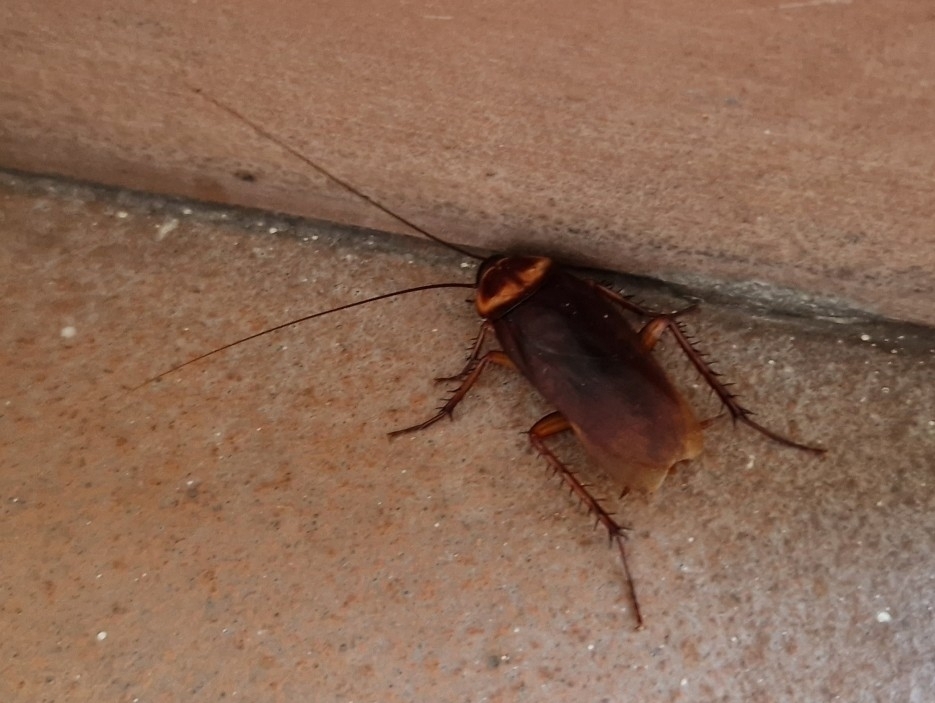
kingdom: Animalia
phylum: Arthropoda
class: Insecta
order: Blattodea
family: Blattidae
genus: Periplaneta
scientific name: Periplaneta americana
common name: American cockroach
